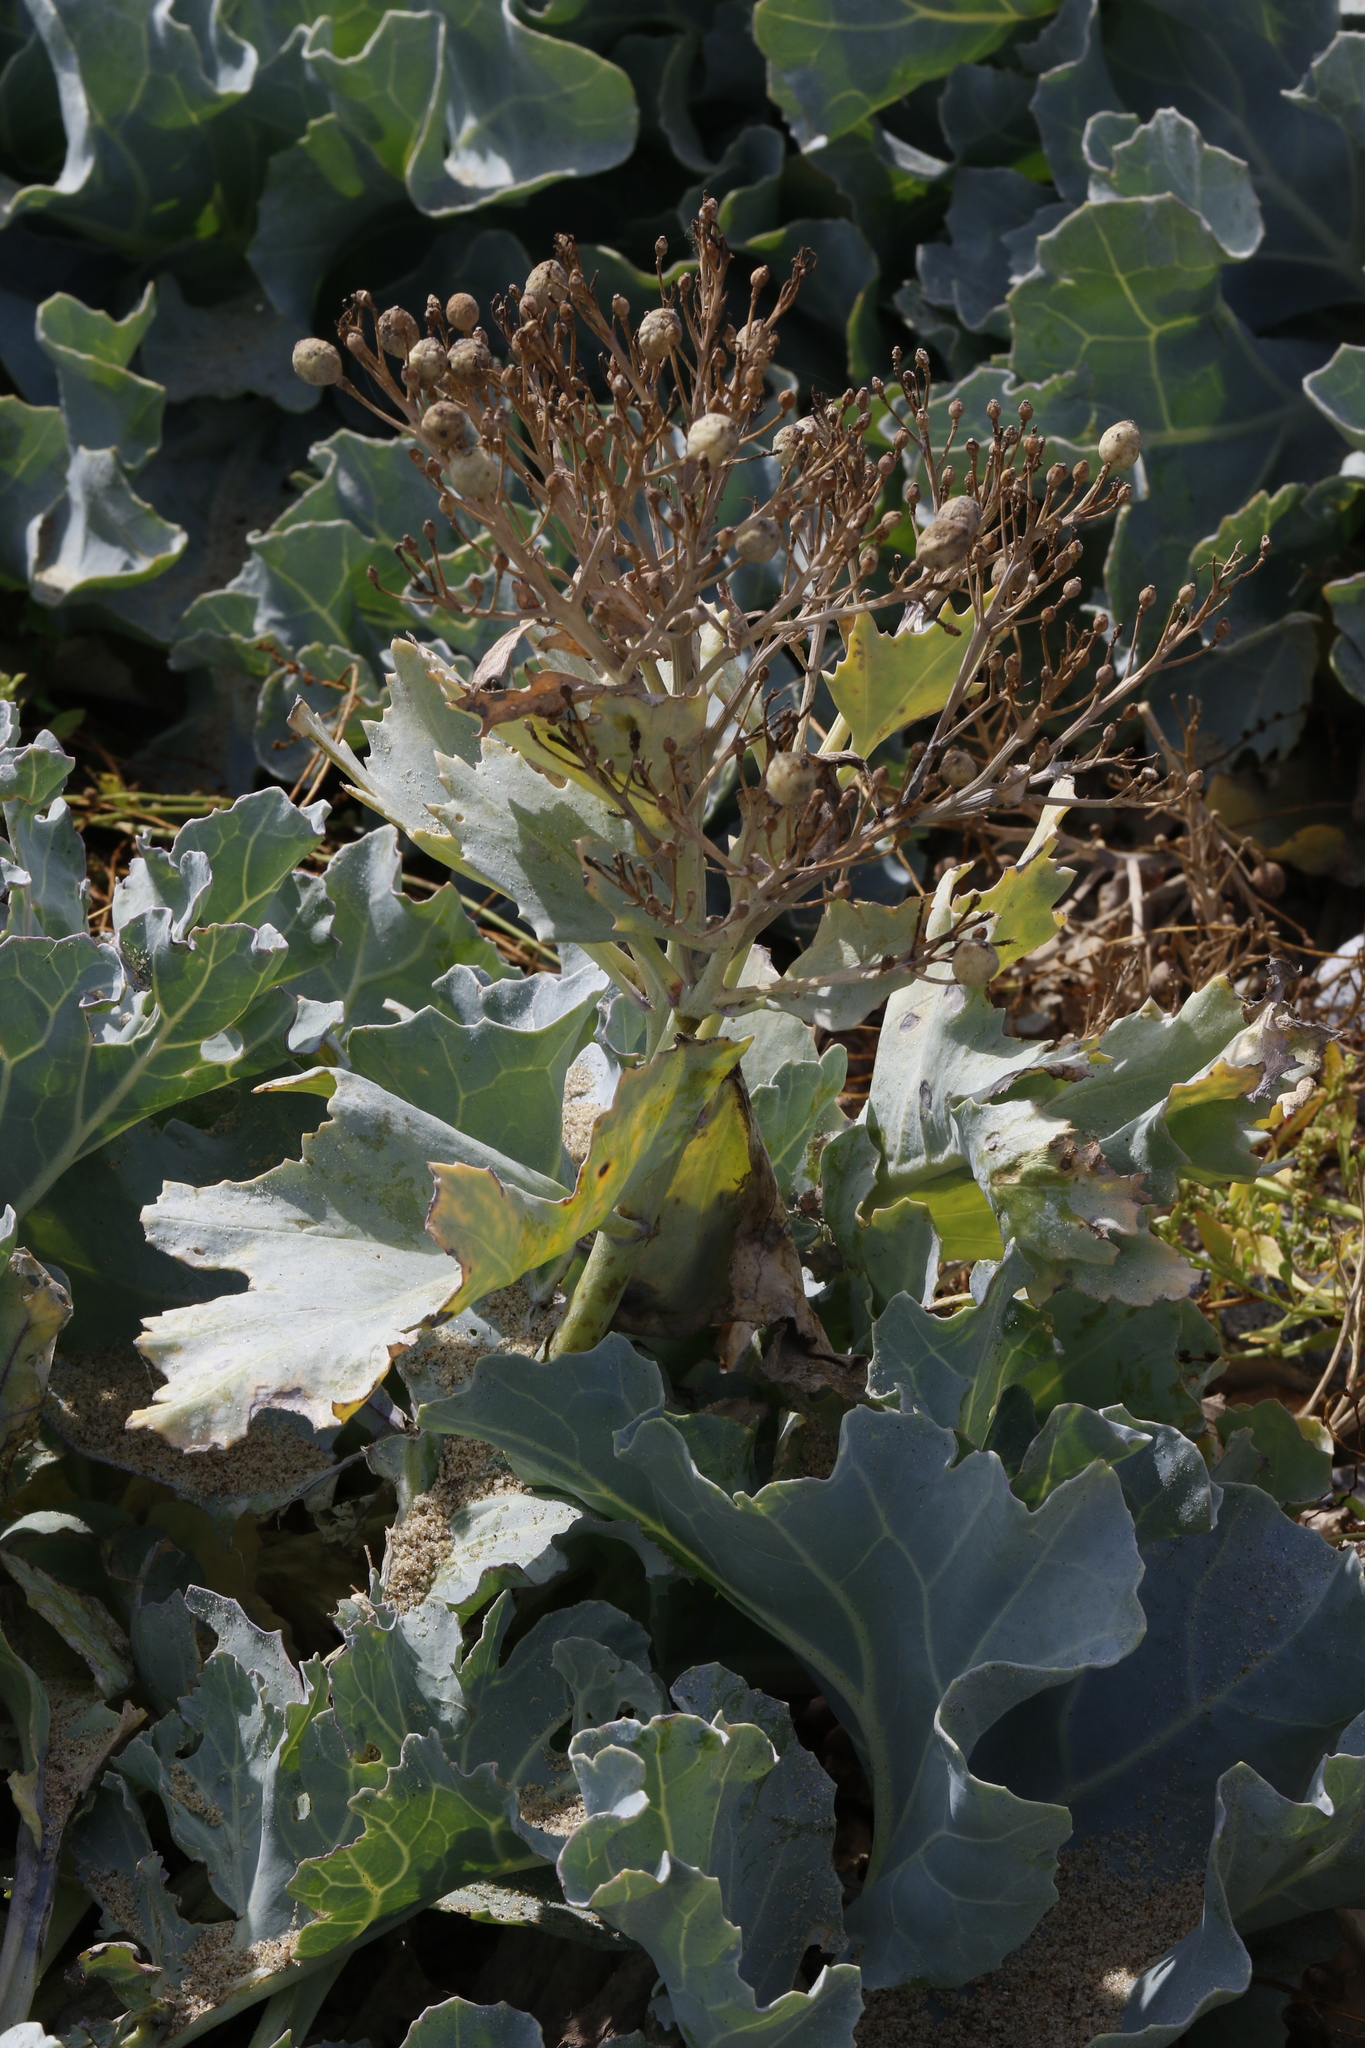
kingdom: Plantae
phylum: Tracheophyta
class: Magnoliopsida
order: Brassicales
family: Brassicaceae
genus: Crambe
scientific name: Crambe maritima
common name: Sea-kale
